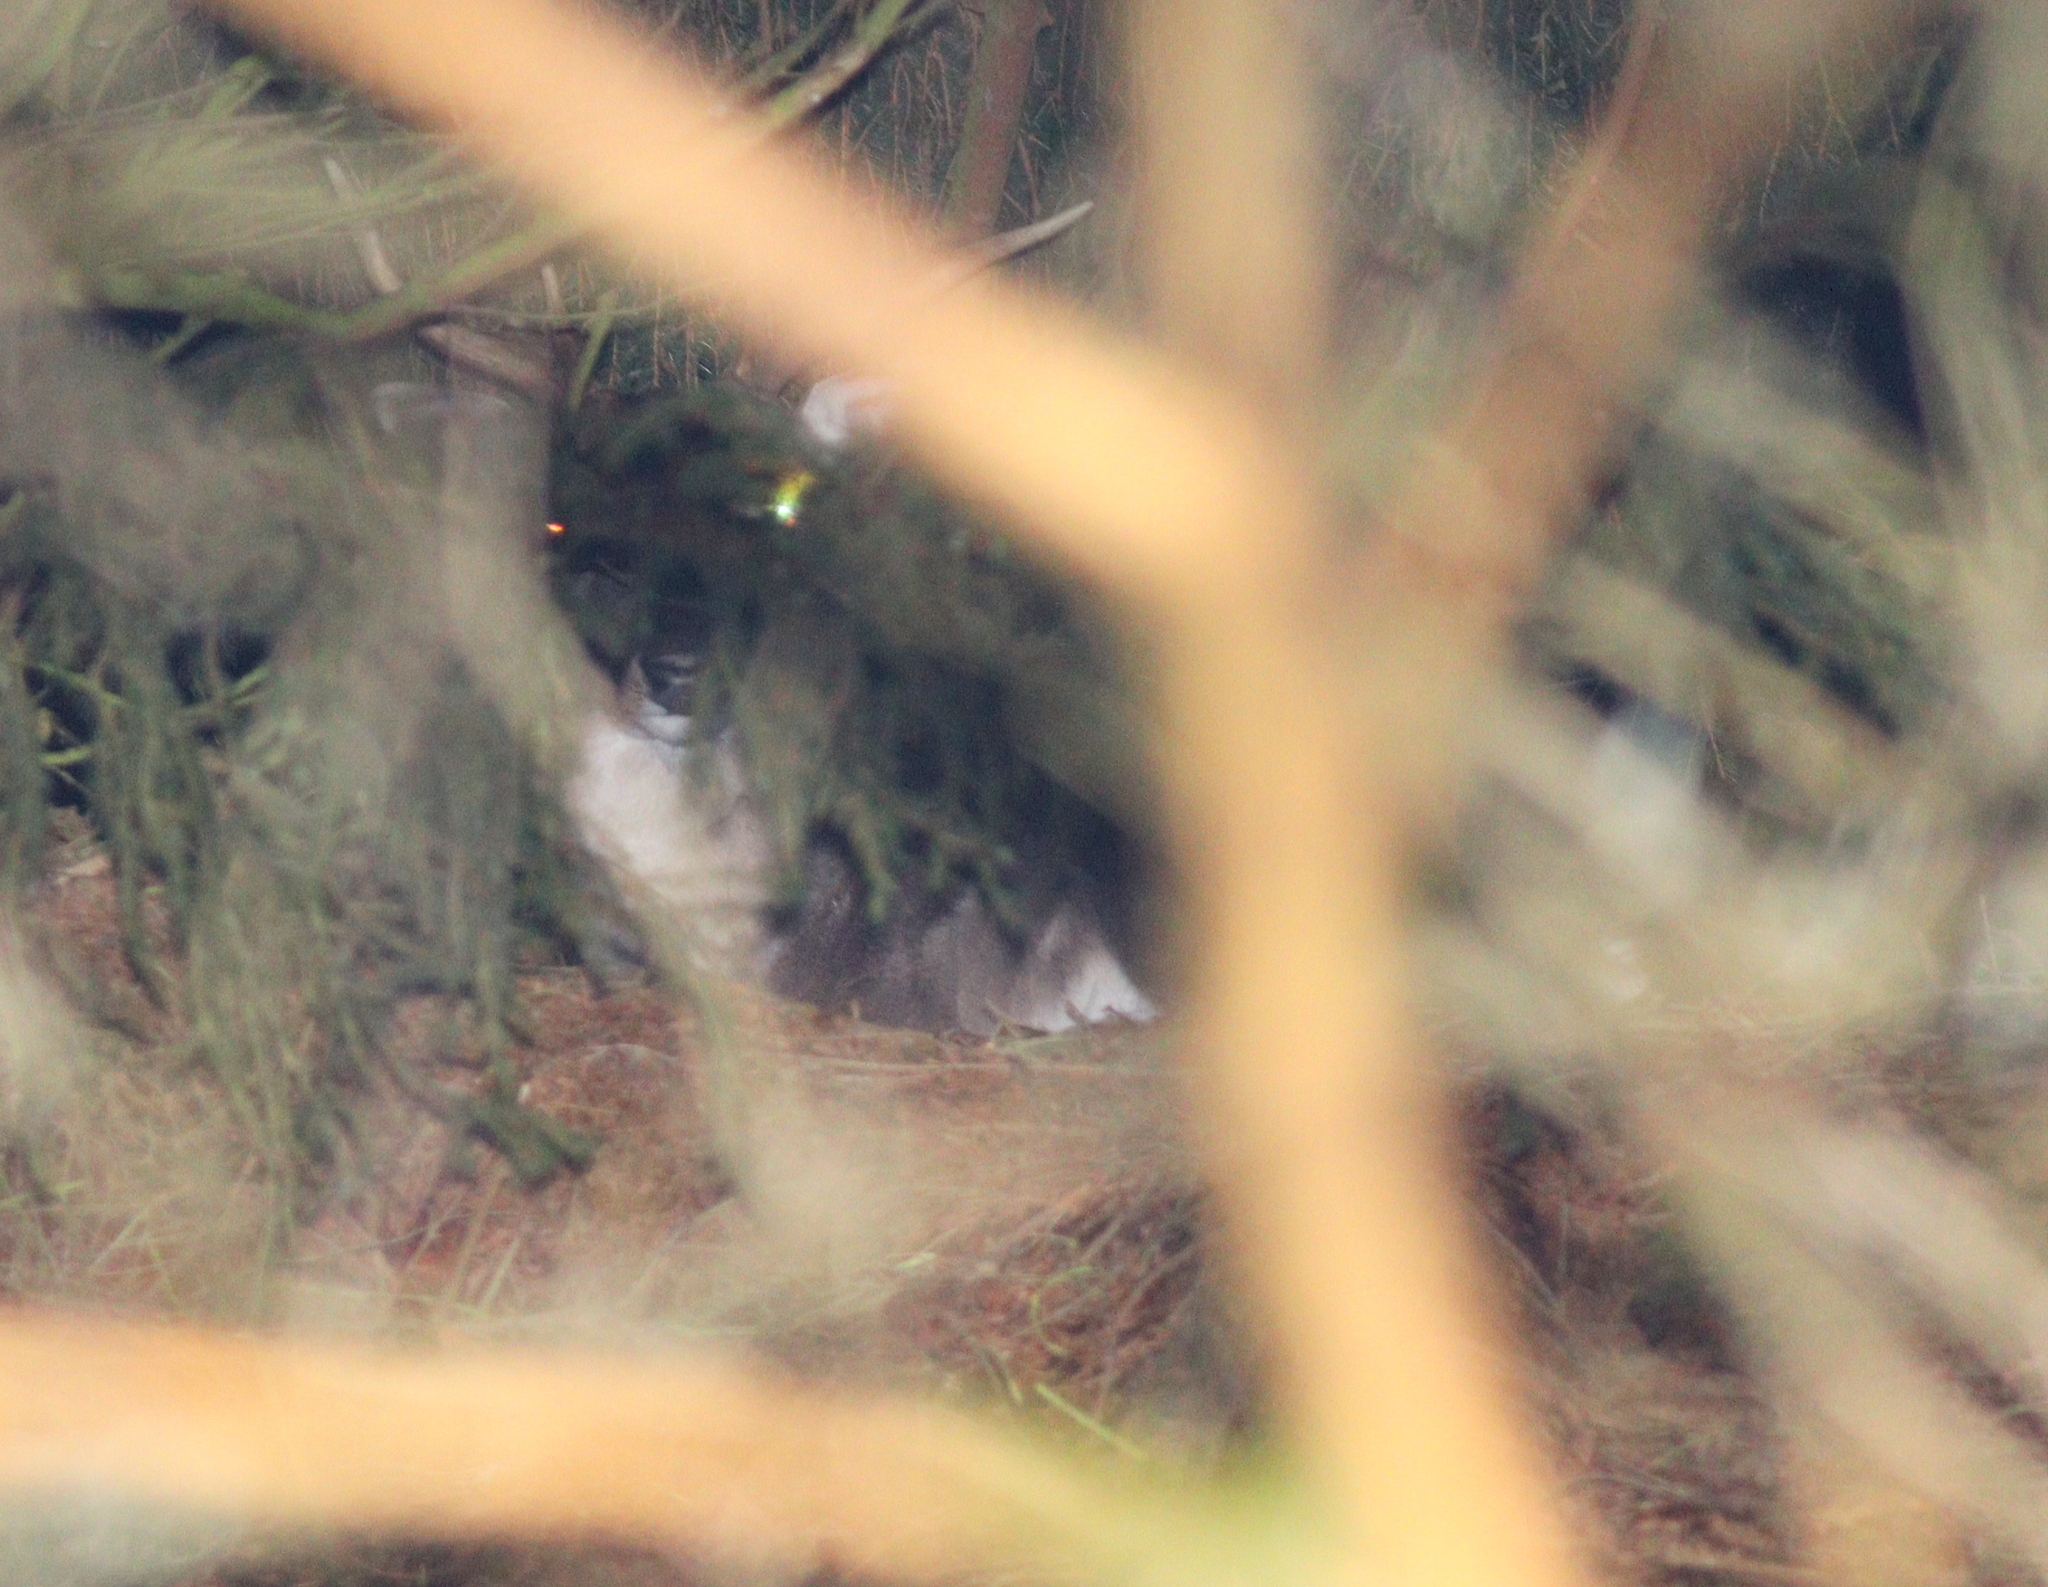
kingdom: Animalia
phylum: Chordata
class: Mammalia
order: Artiodactyla
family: Cervidae
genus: Dama
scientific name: Dama dama
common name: Fallow deer
